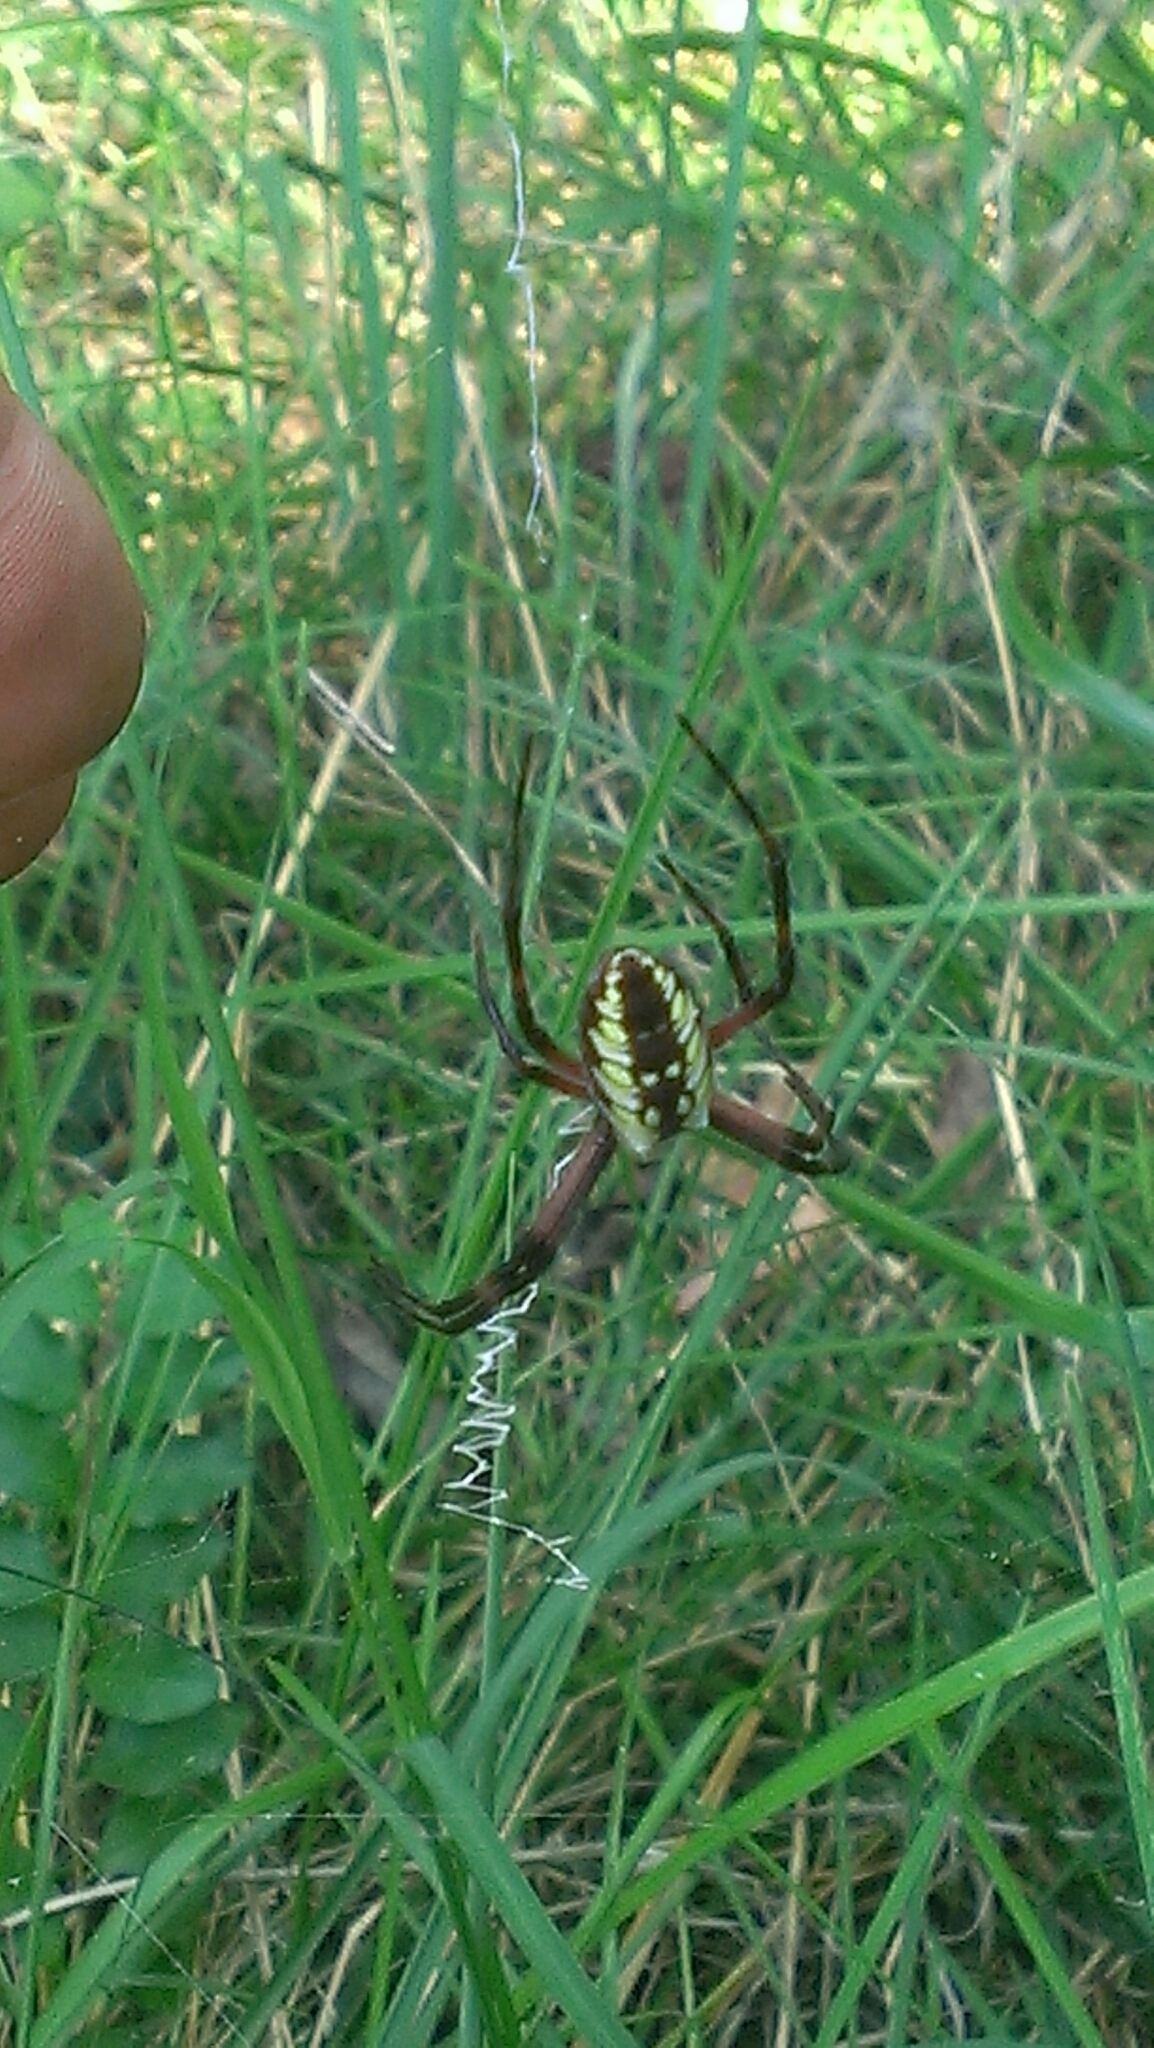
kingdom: Animalia
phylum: Arthropoda
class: Arachnida
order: Araneae
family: Araneidae
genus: Argiope
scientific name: Argiope aurantia
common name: Orb weavers
